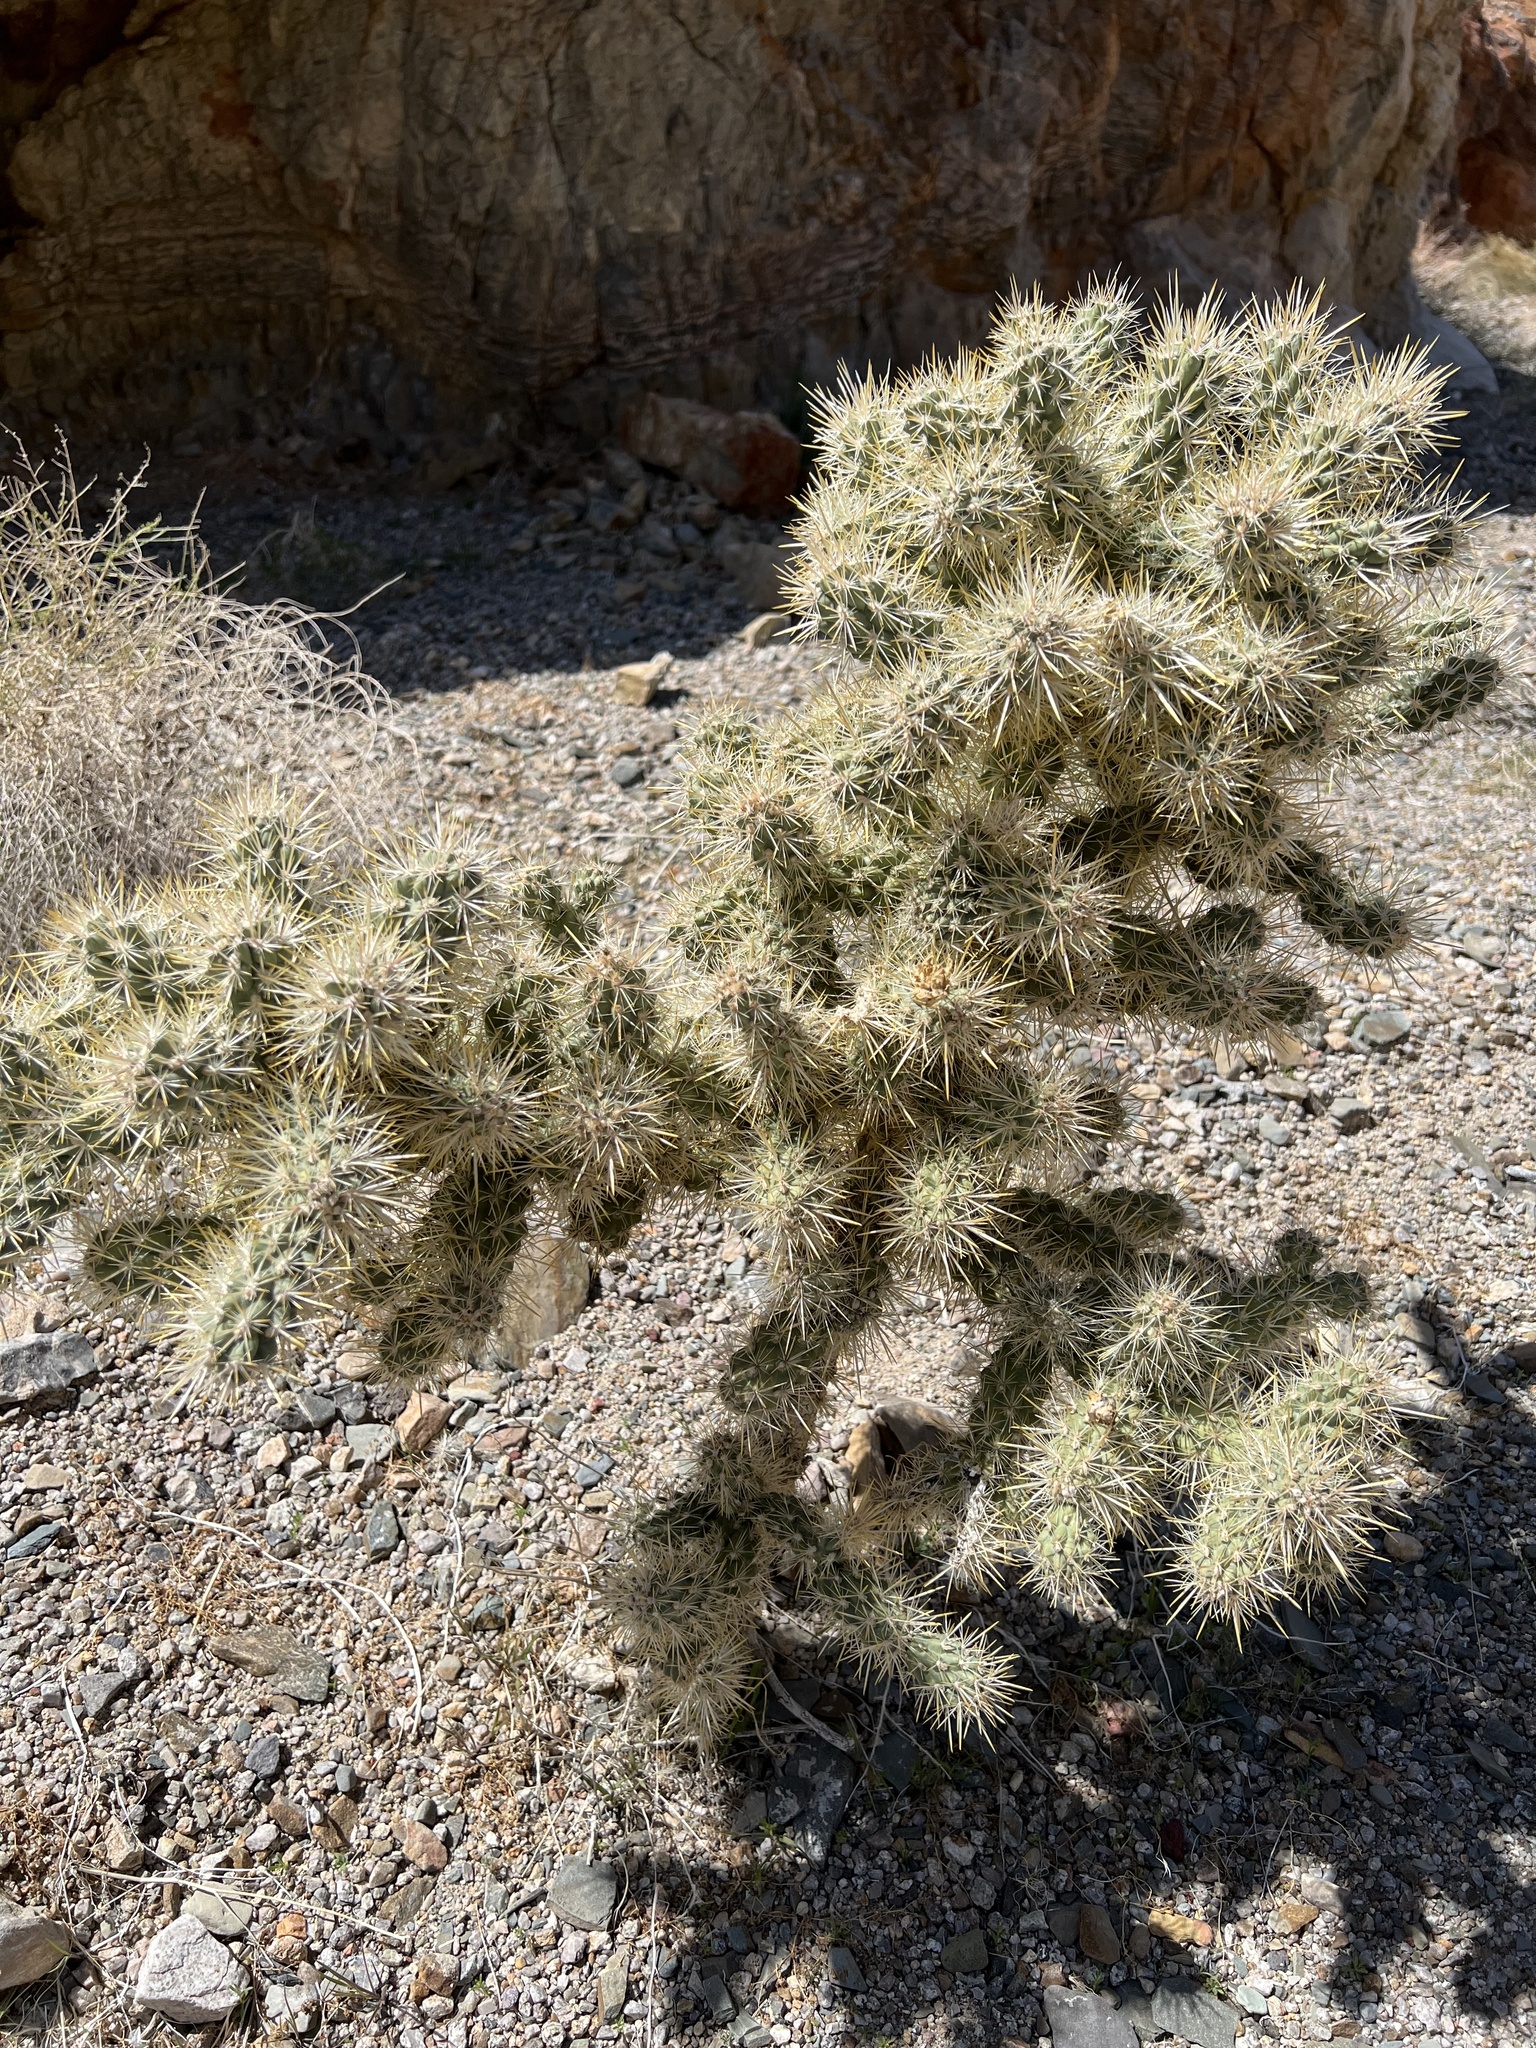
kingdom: Plantae
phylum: Tracheophyta
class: Magnoliopsida
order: Caryophyllales
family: Cactaceae
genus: Cylindropuntia
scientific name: Cylindropuntia echinocarpa
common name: Ground cholla
